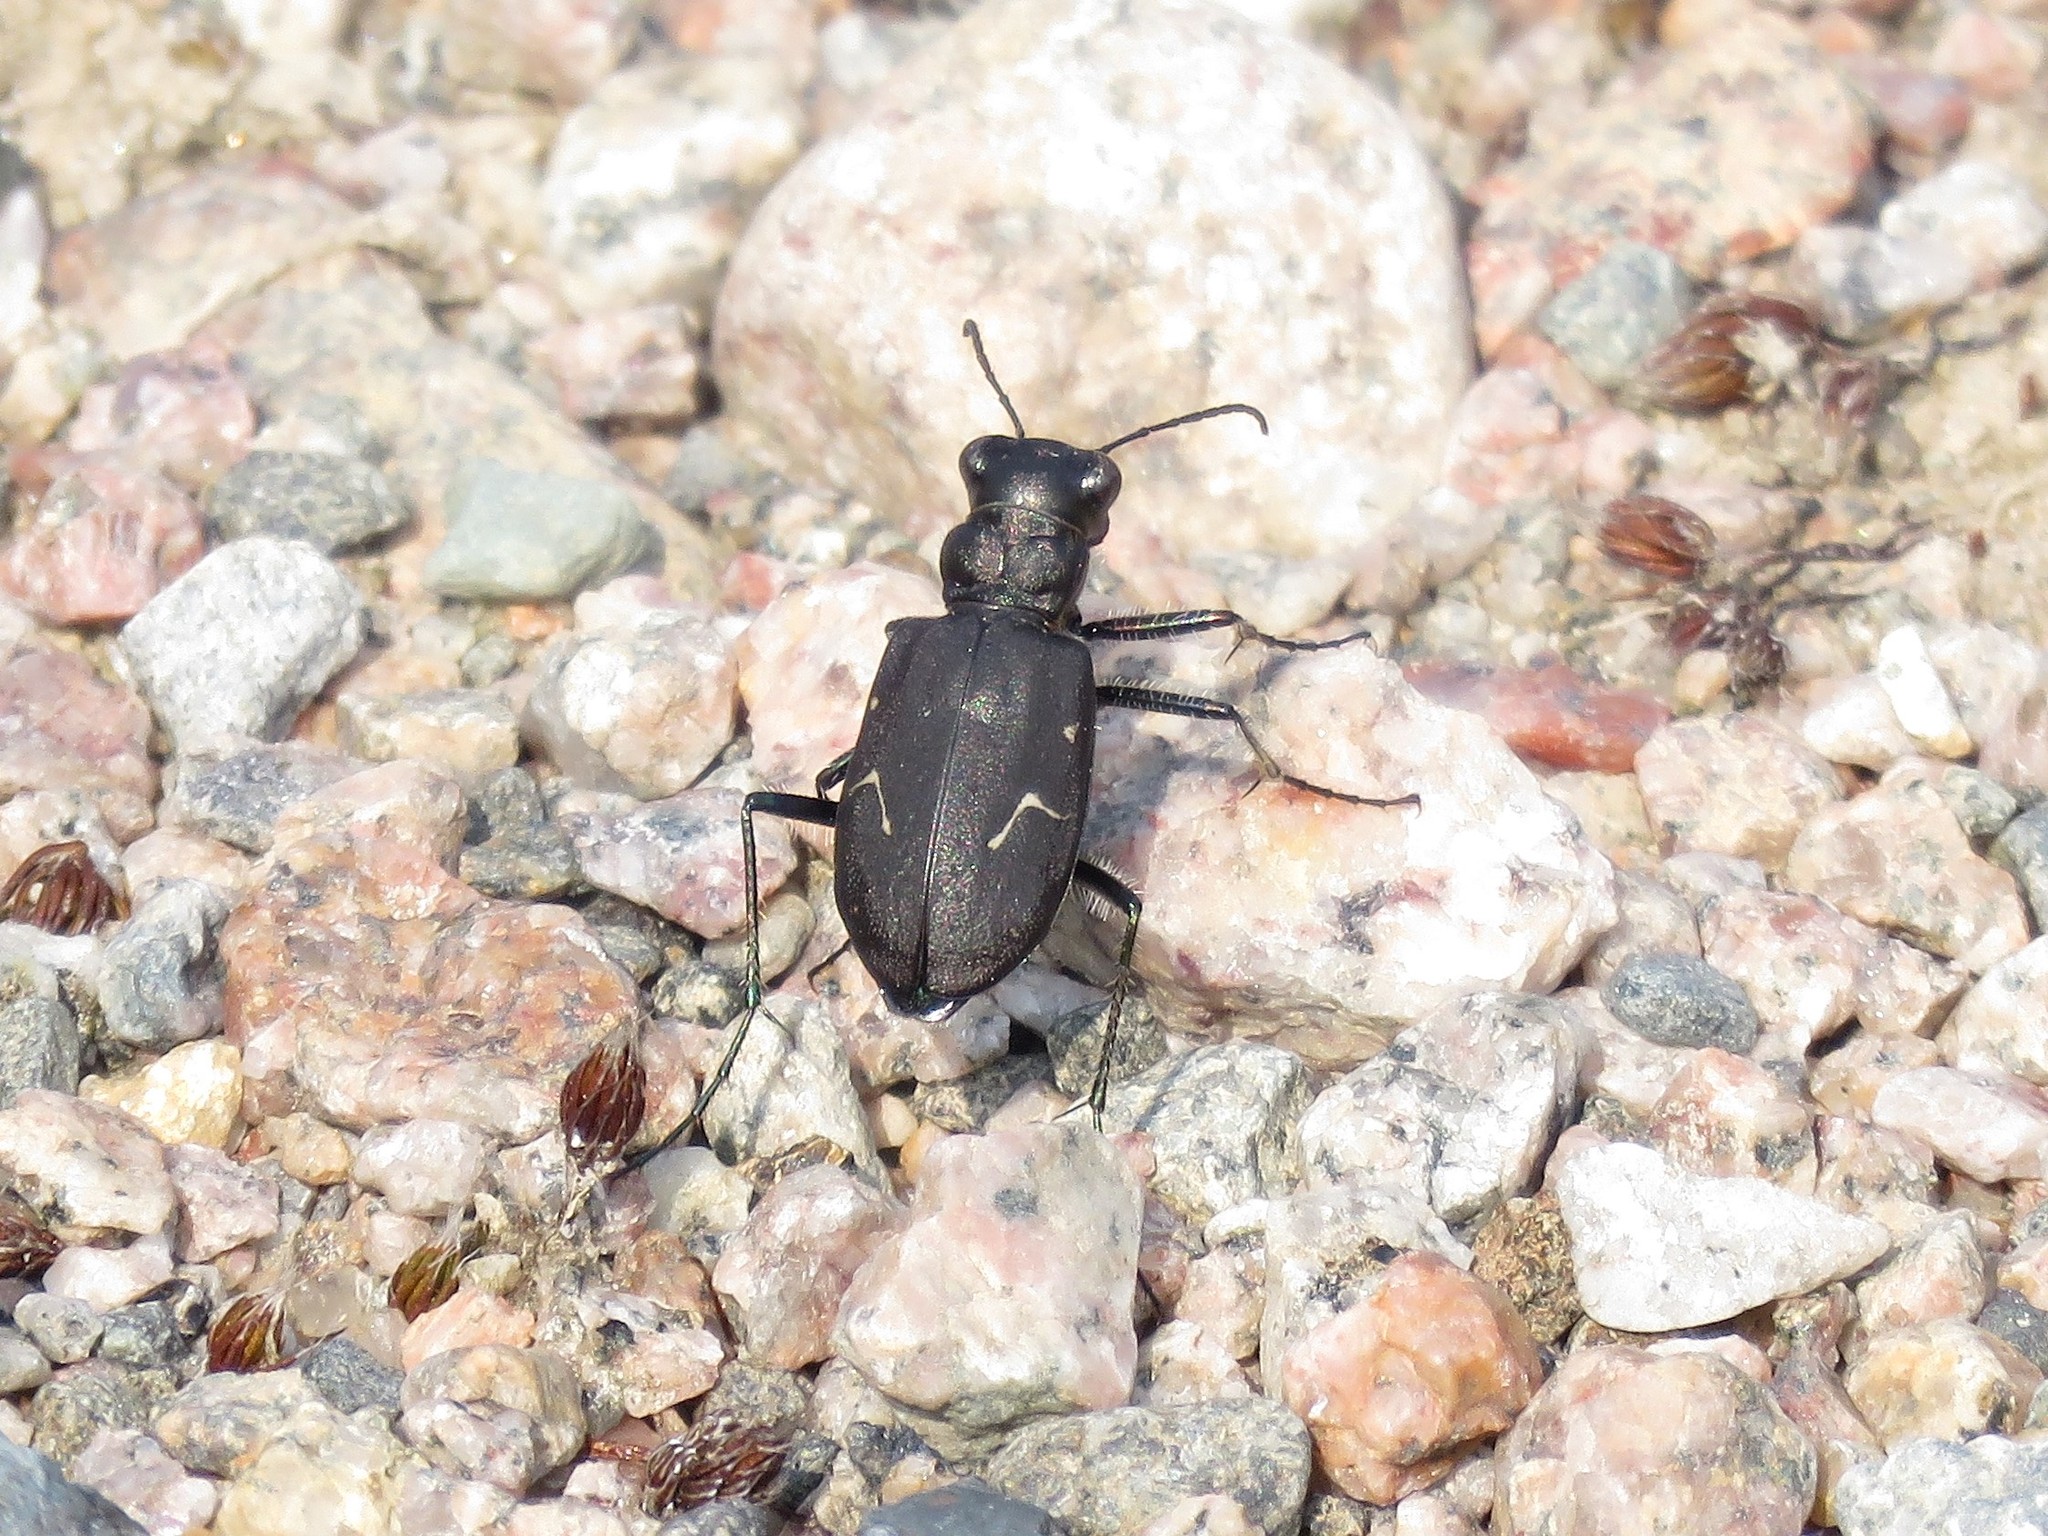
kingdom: Animalia
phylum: Arthropoda
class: Insecta
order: Coleoptera
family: Carabidae
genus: Cicindela
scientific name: Cicindela longilabris
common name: Boreal long-lipped tiger beetle
